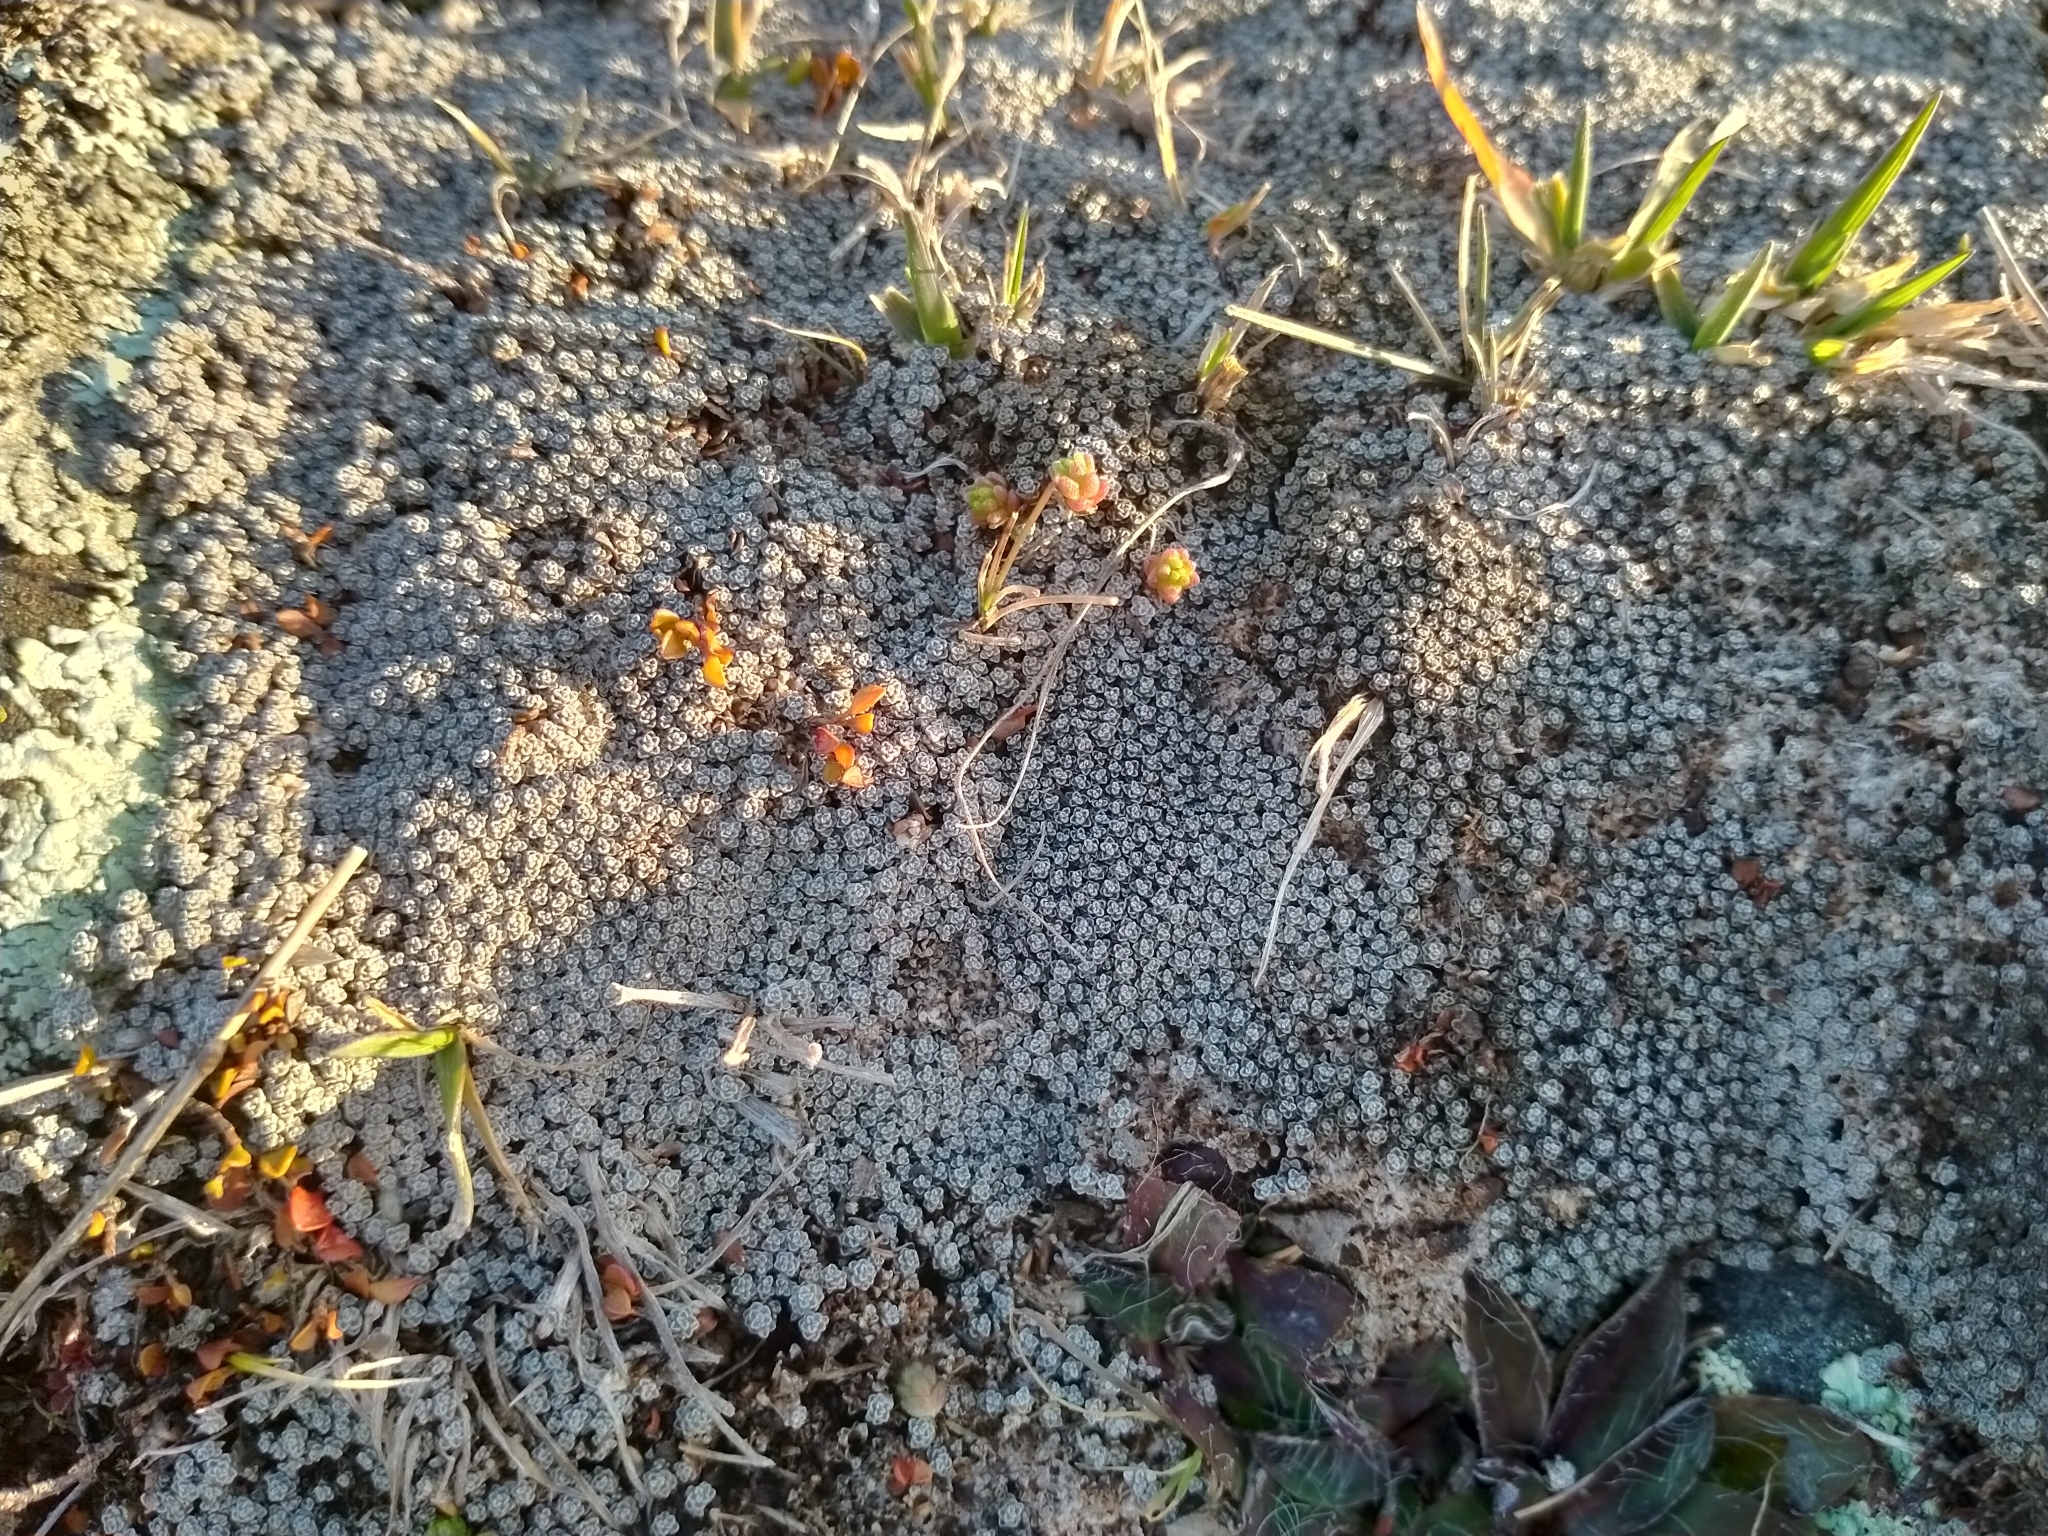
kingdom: Plantae
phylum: Tracheophyta
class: Magnoliopsida
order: Asterales
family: Asteraceae
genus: Raoulia
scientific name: Raoulia australis
